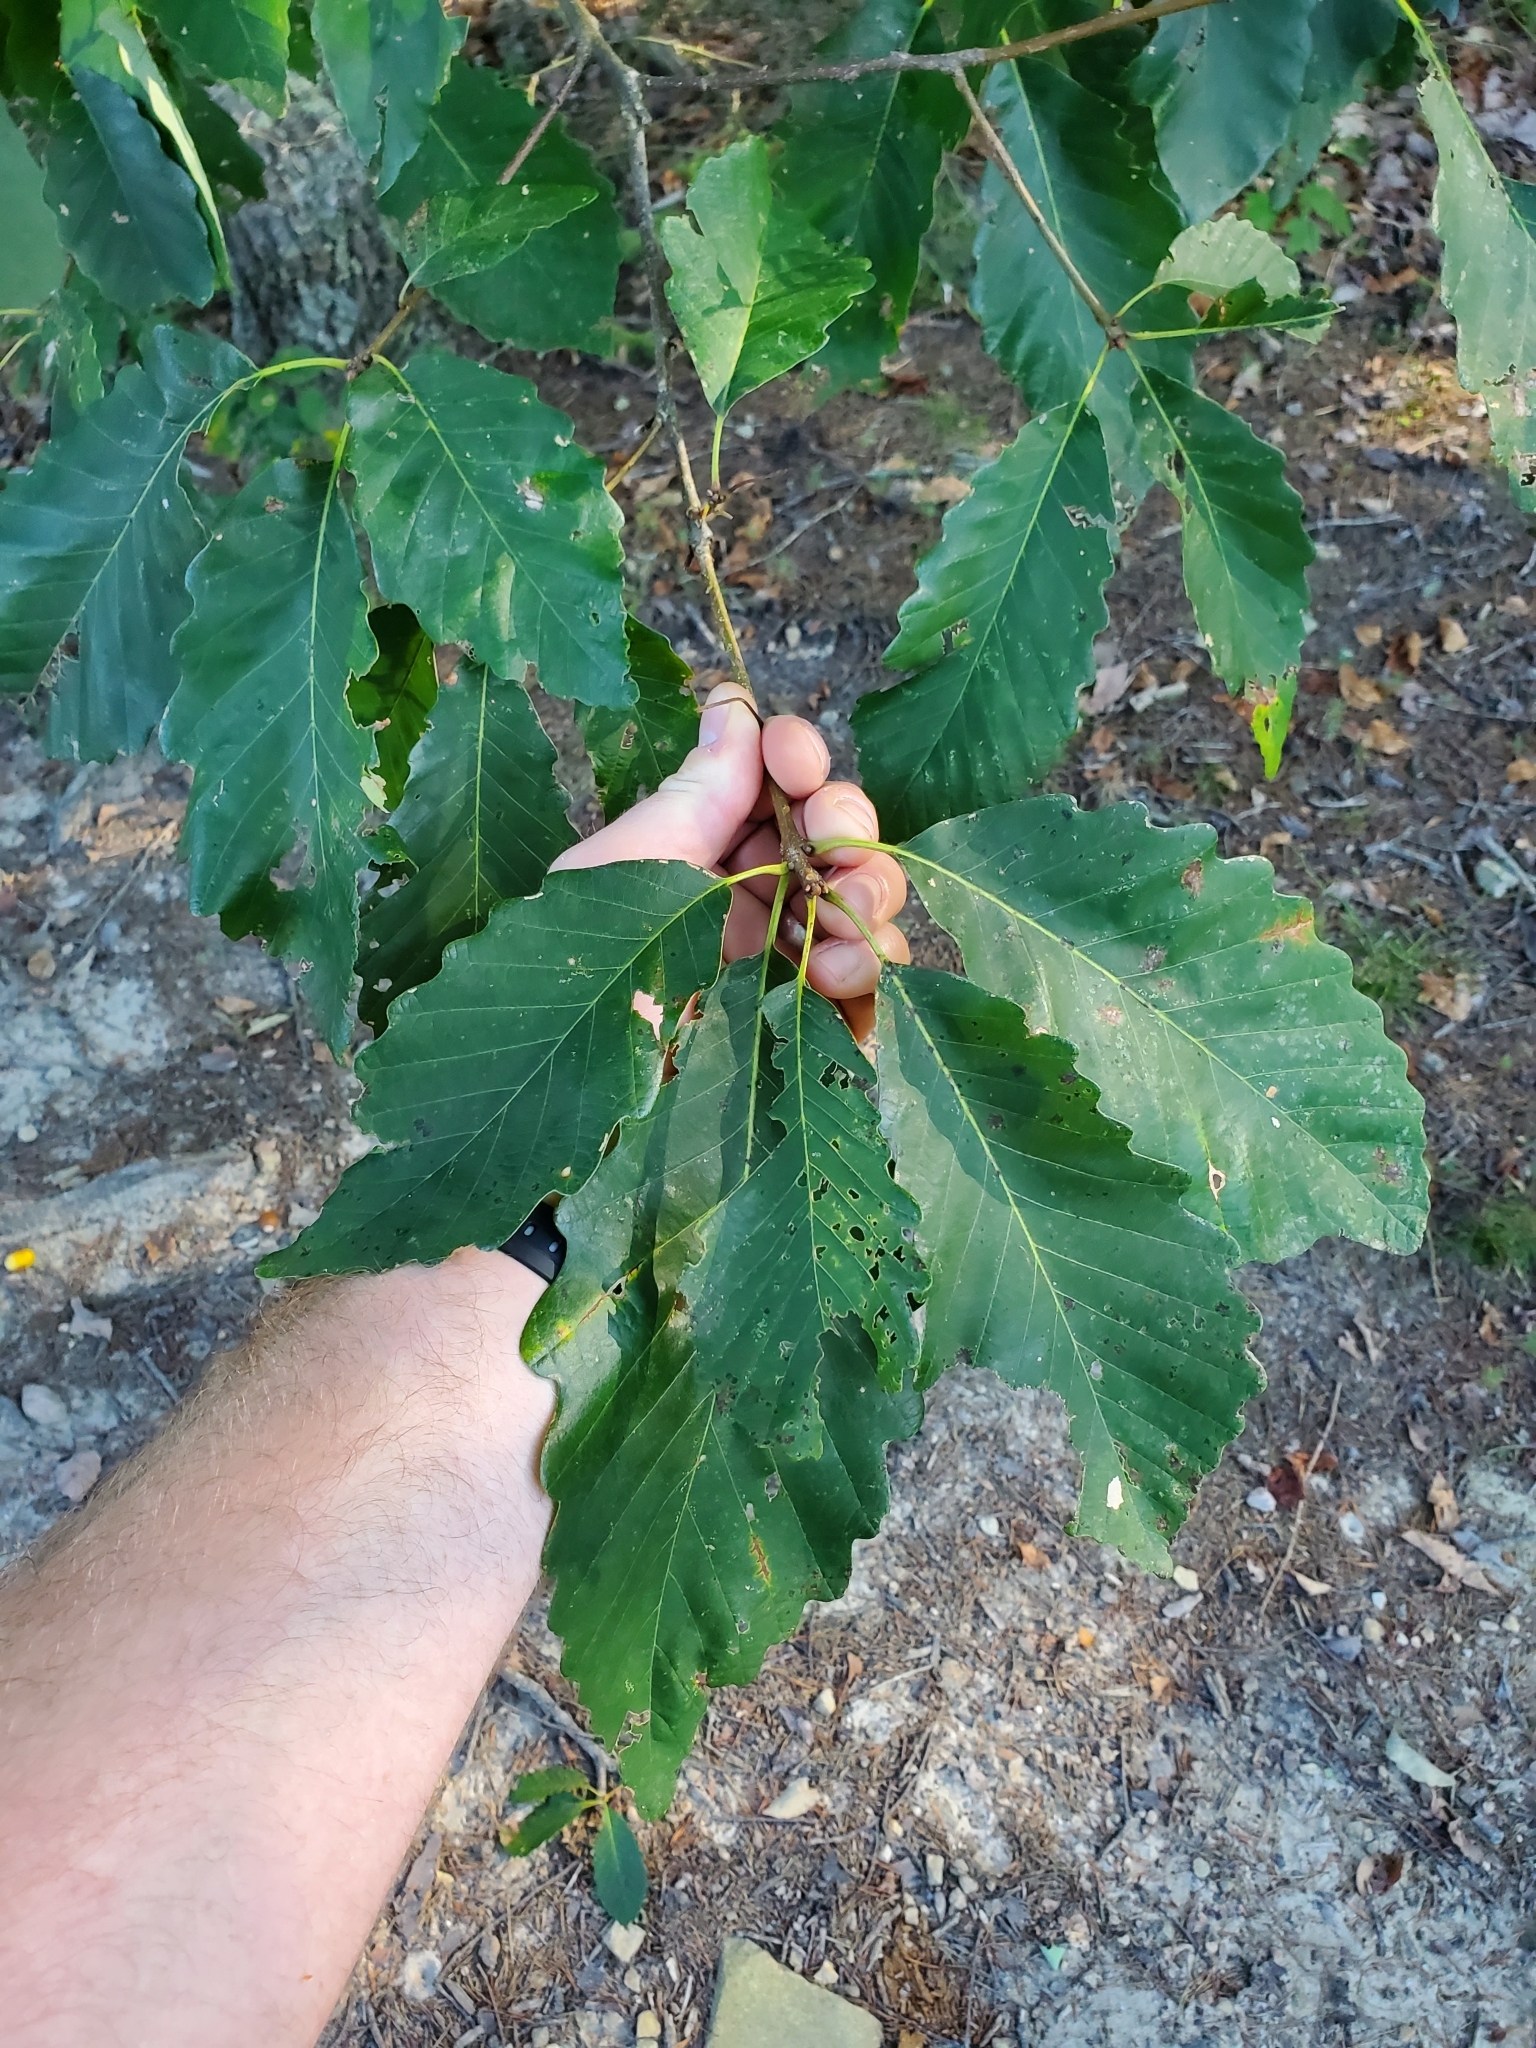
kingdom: Plantae
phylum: Tracheophyta
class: Magnoliopsida
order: Fagales
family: Fagaceae
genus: Quercus
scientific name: Quercus montana
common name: Chestnut oak
